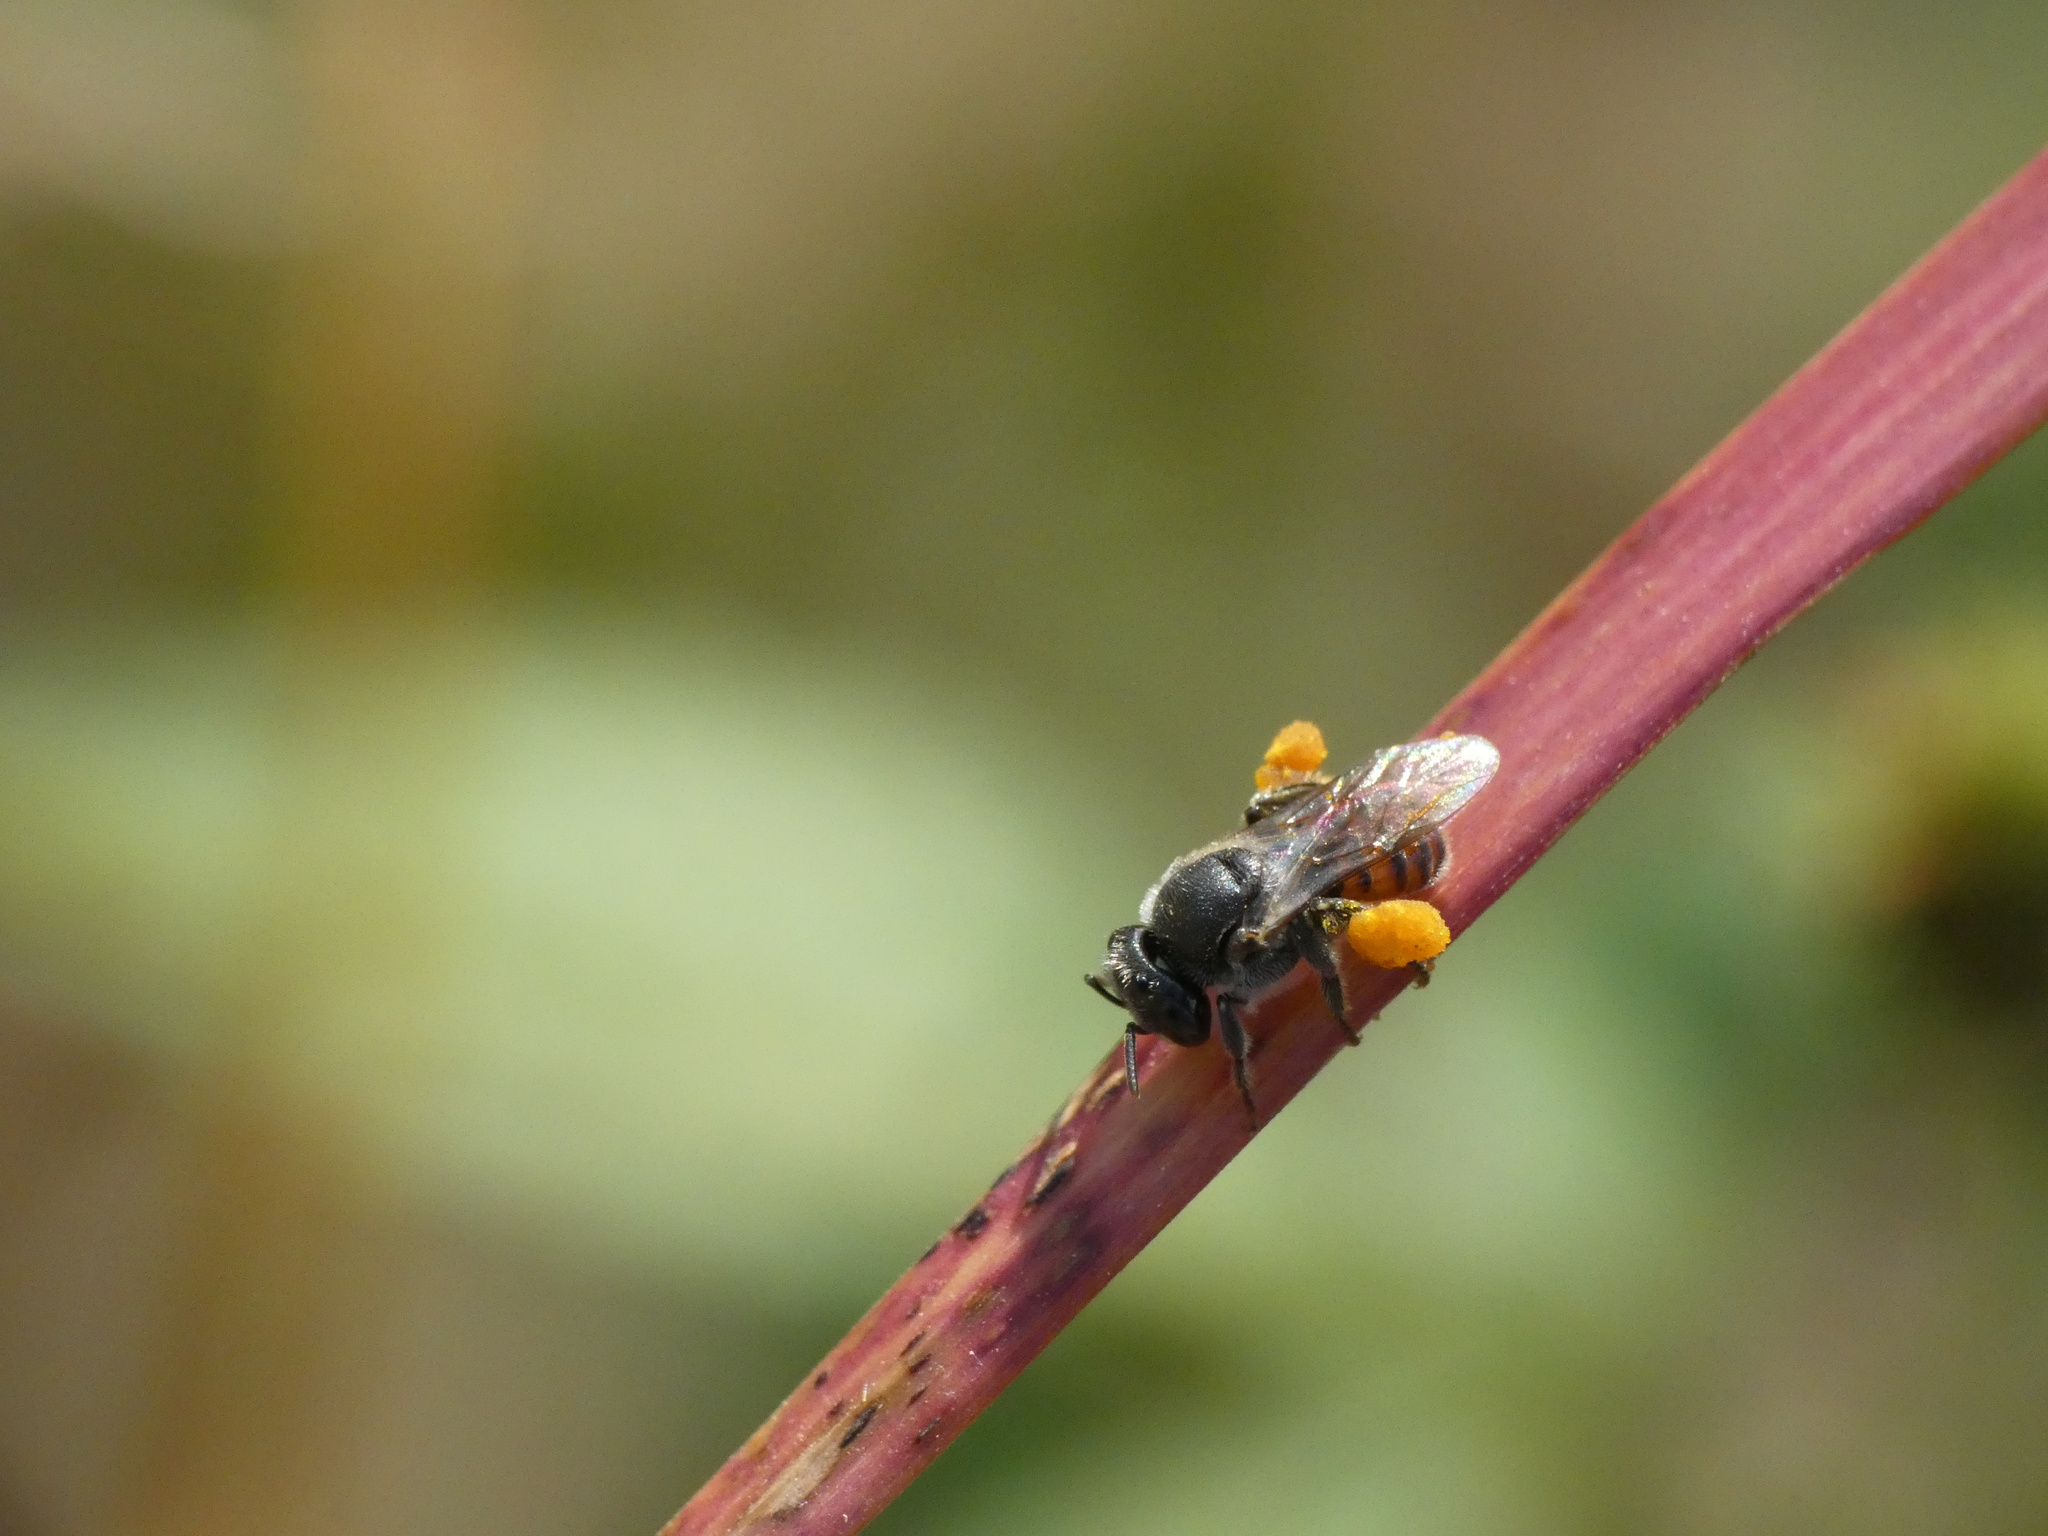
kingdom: Animalia
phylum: Arthropoda
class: Insecta
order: Hymenoptera
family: Apidae
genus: Plebeina
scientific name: Plebeina armata
